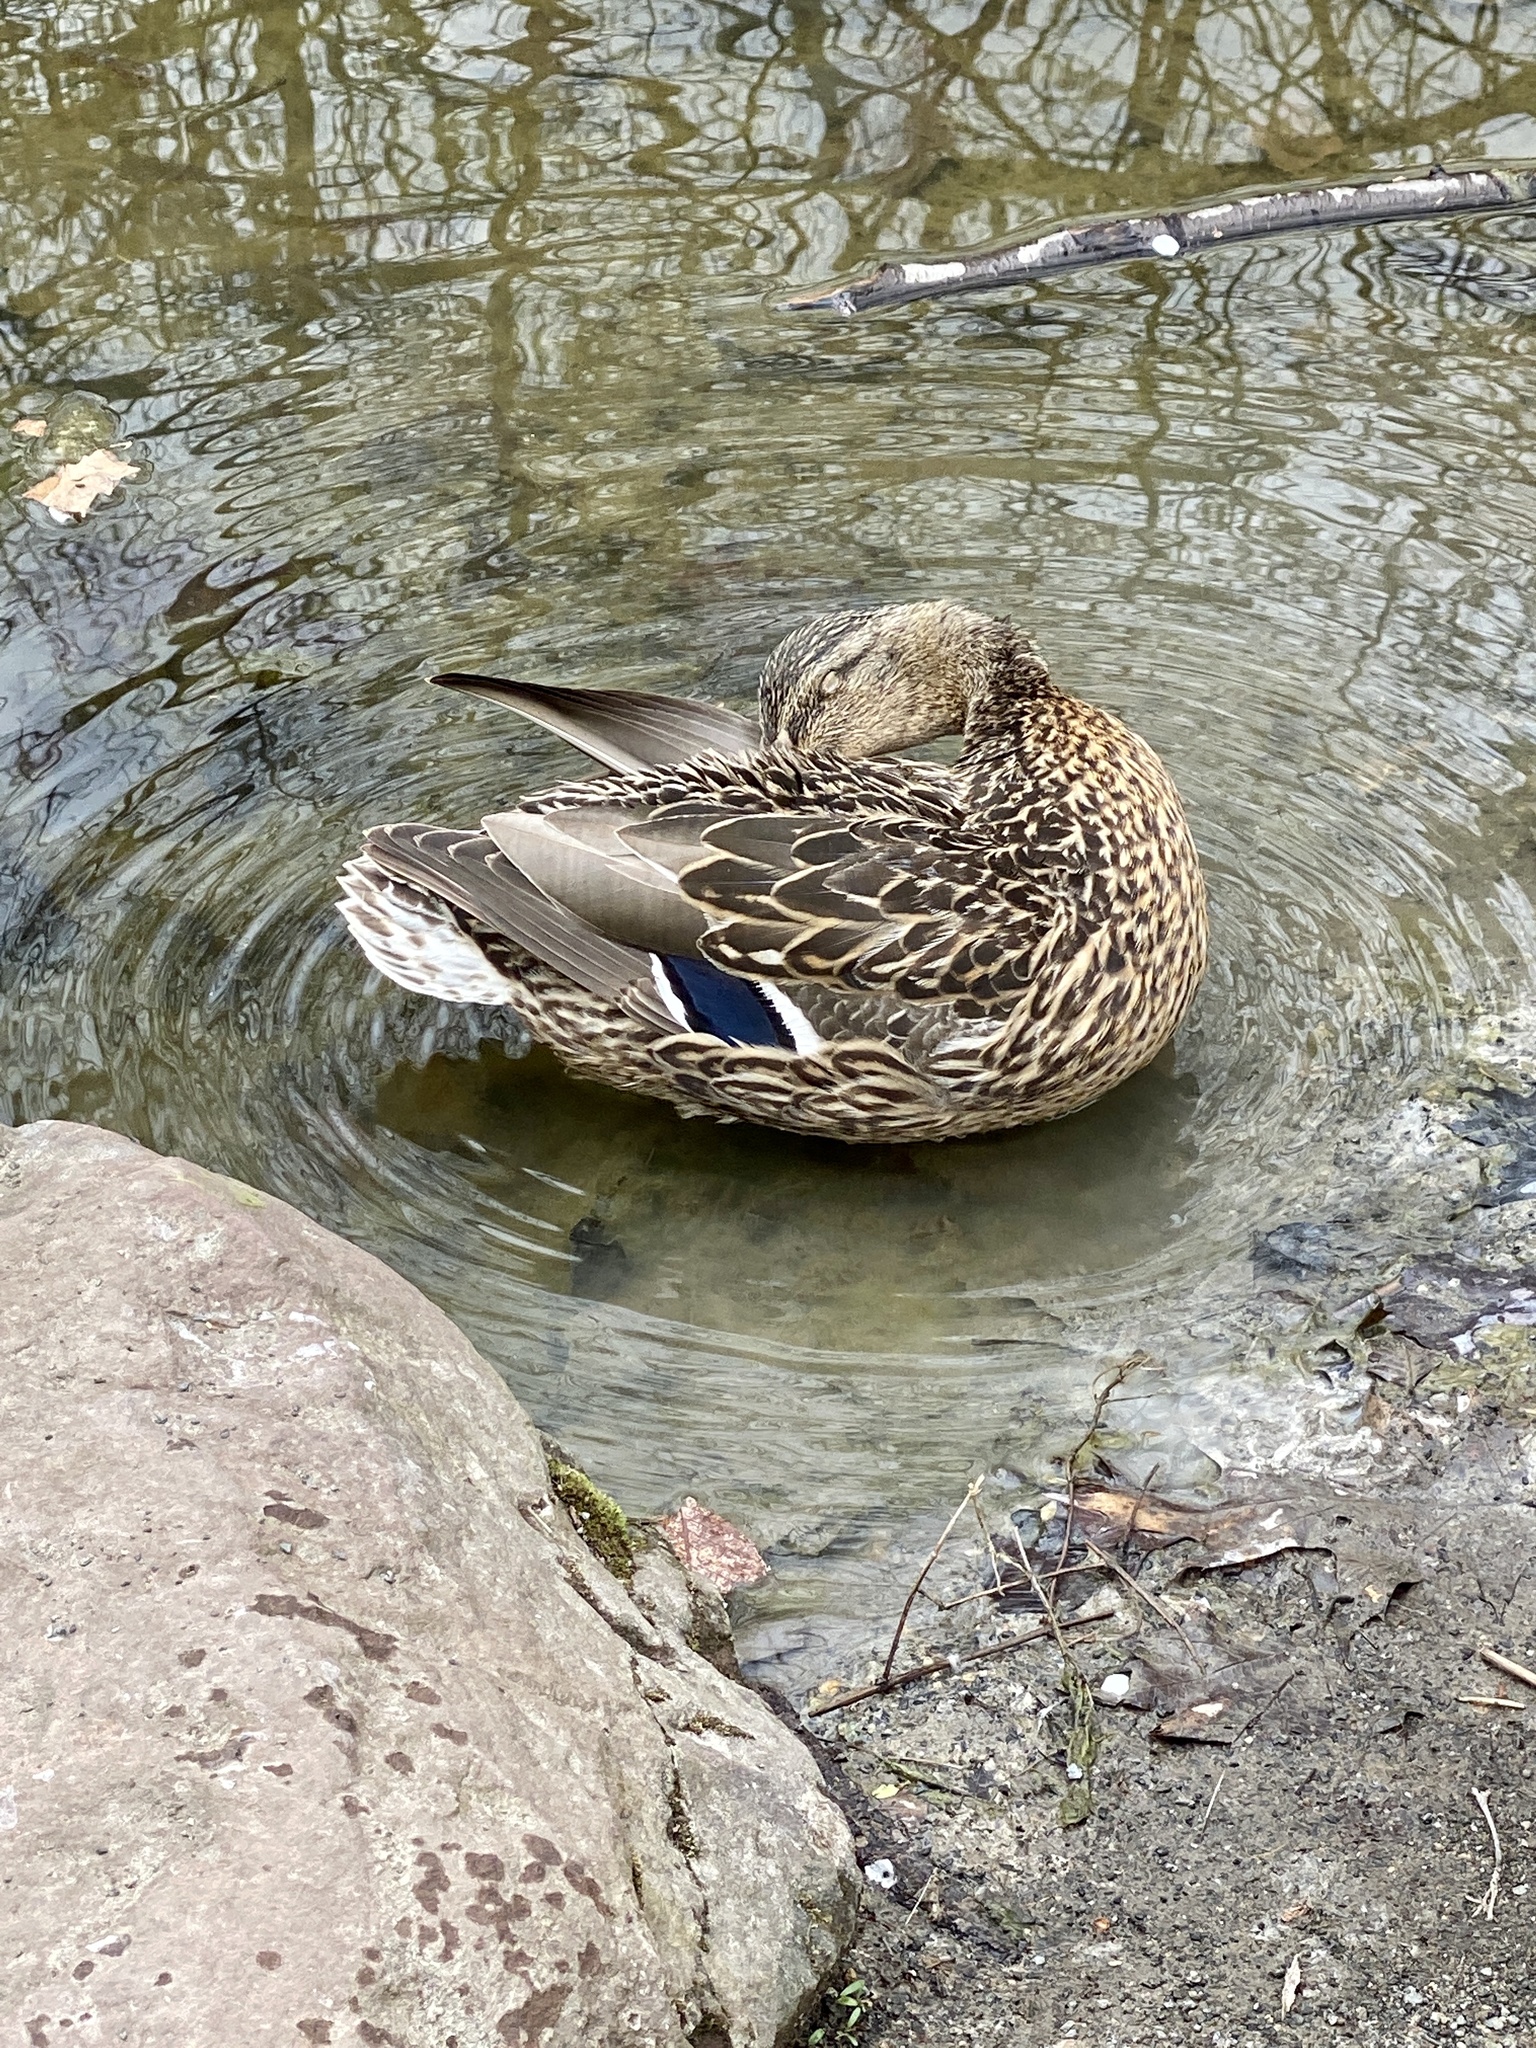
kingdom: Animalia
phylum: Chordata
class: Aves
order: Anseriformes
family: Anatidae
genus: Anas
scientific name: Anas platyrhynchos
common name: Mallard
